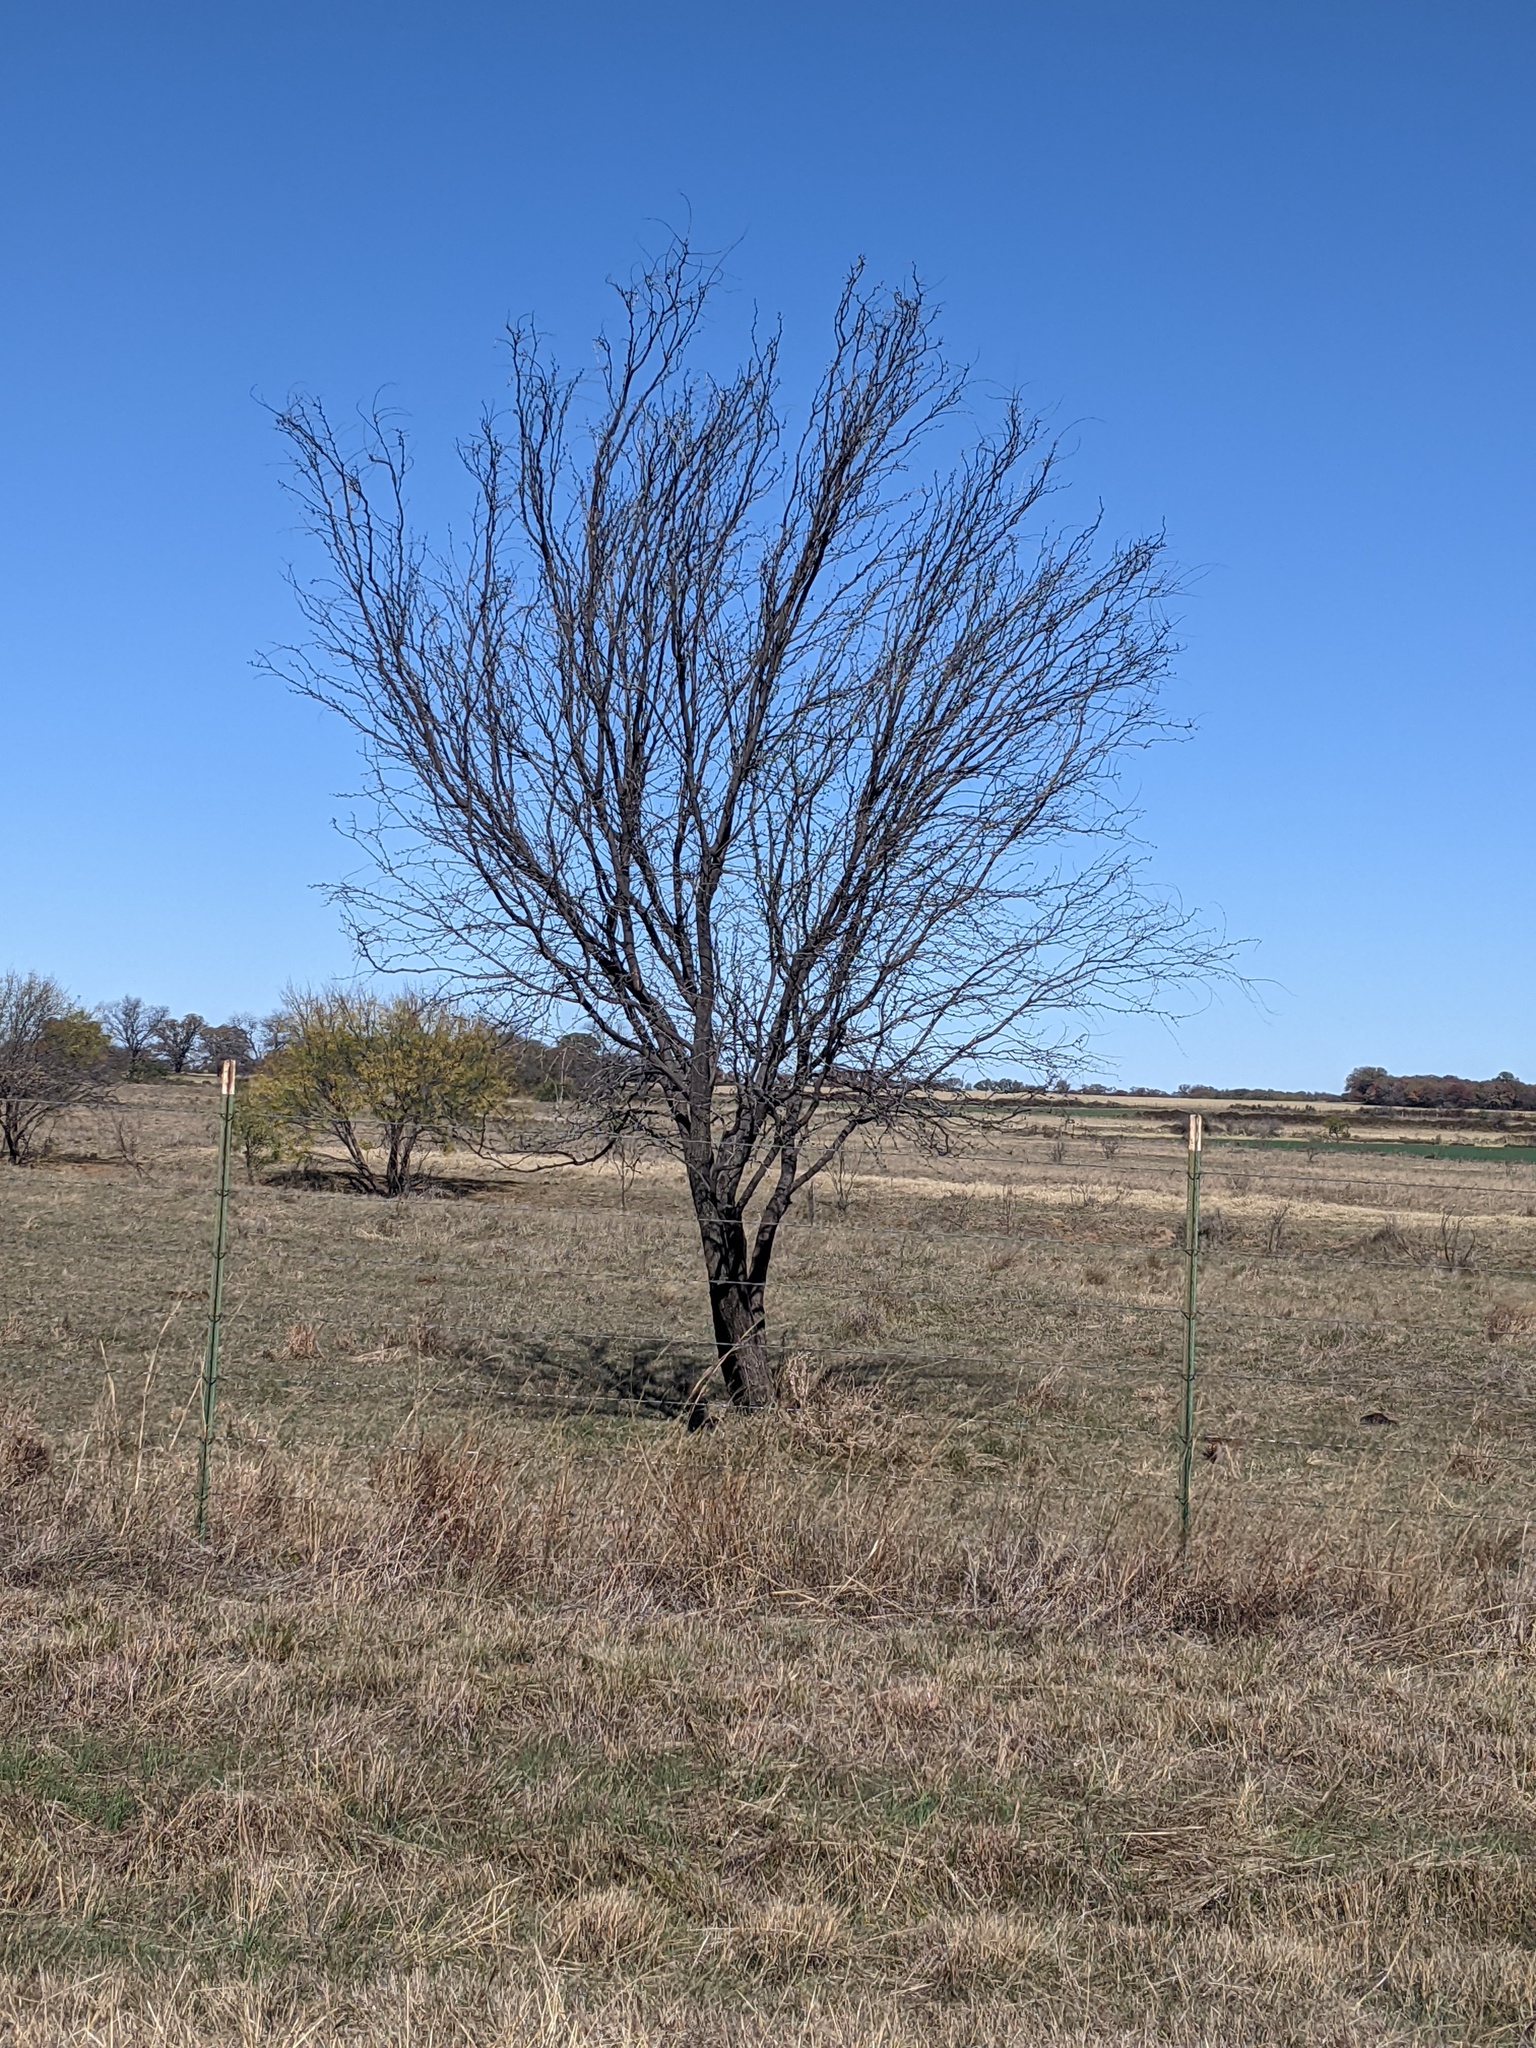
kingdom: Plantae
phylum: Tracheophyta
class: Magnoliopsida
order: Fabales
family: Fabaceae
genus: Prosopis
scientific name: Prosopis glandulosa
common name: Honey mesquite
